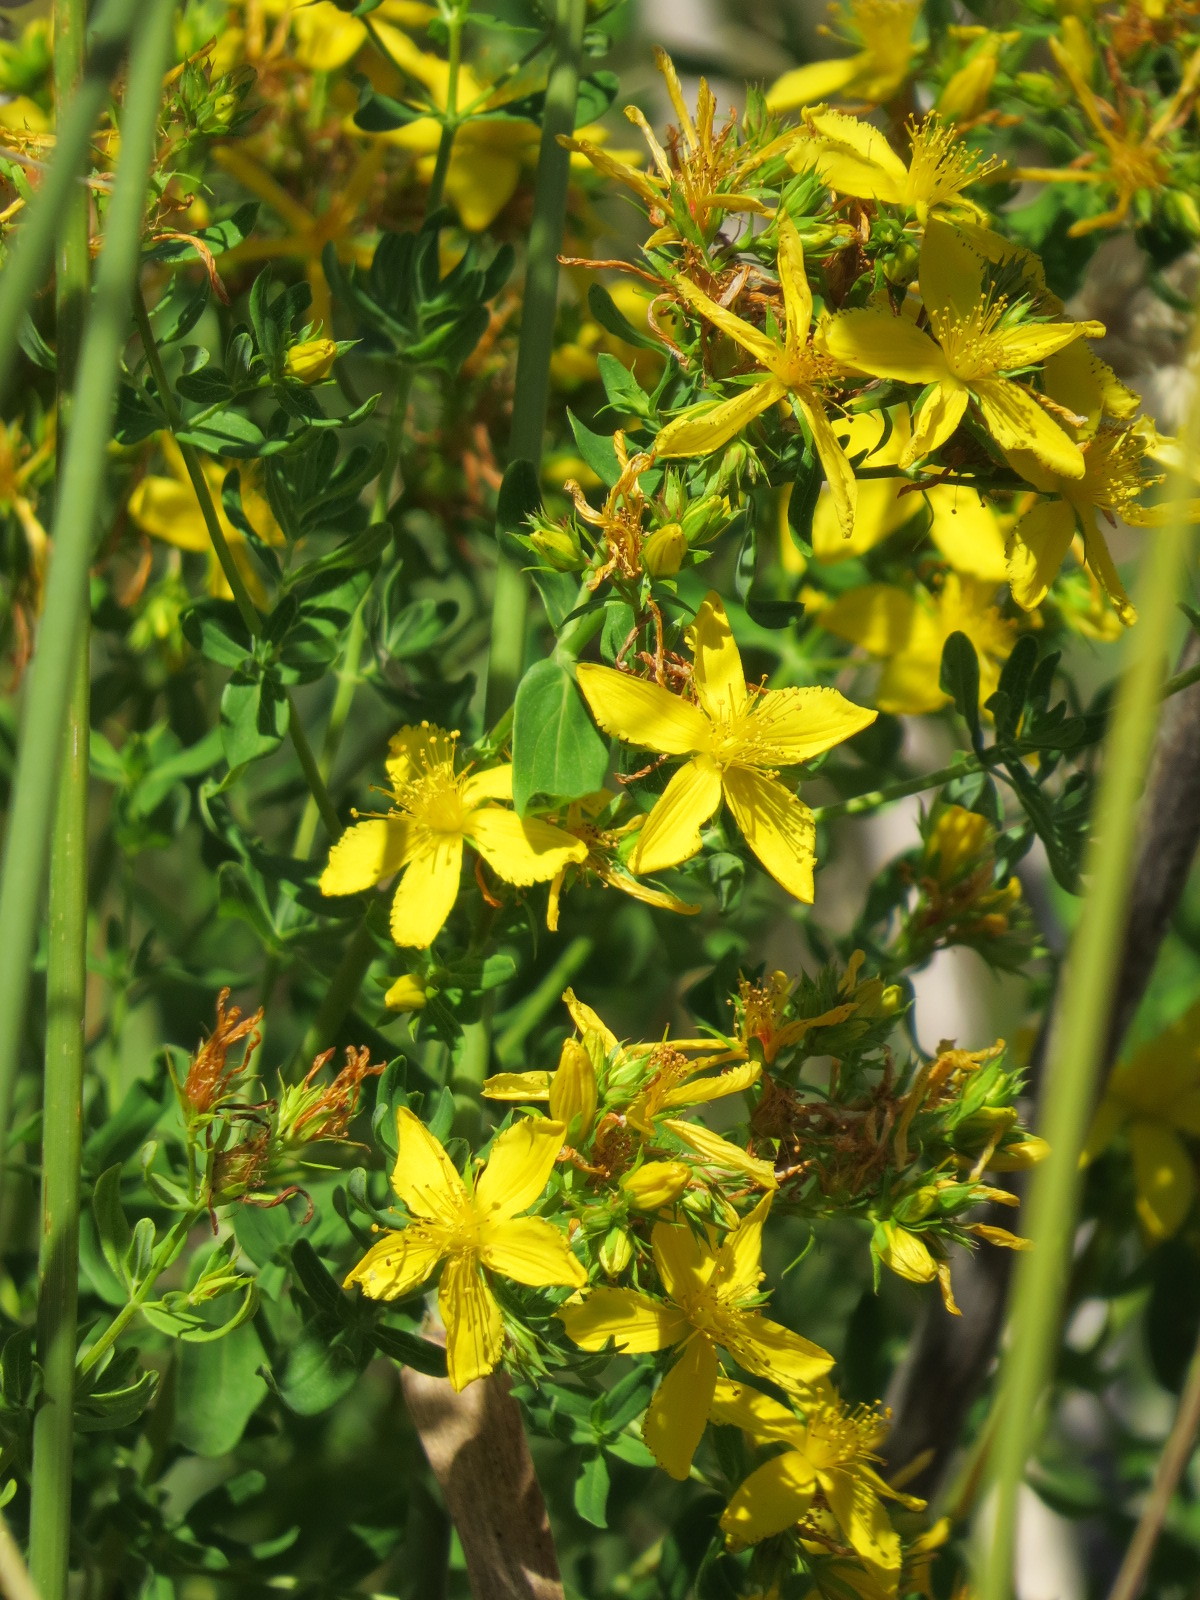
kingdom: Plantae
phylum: Tracheophyta
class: Magnoliopsida
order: Malpighiales
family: Hypericaceae
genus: Hypericum
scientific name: Hypericum perforatum
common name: Common st. johnswort
